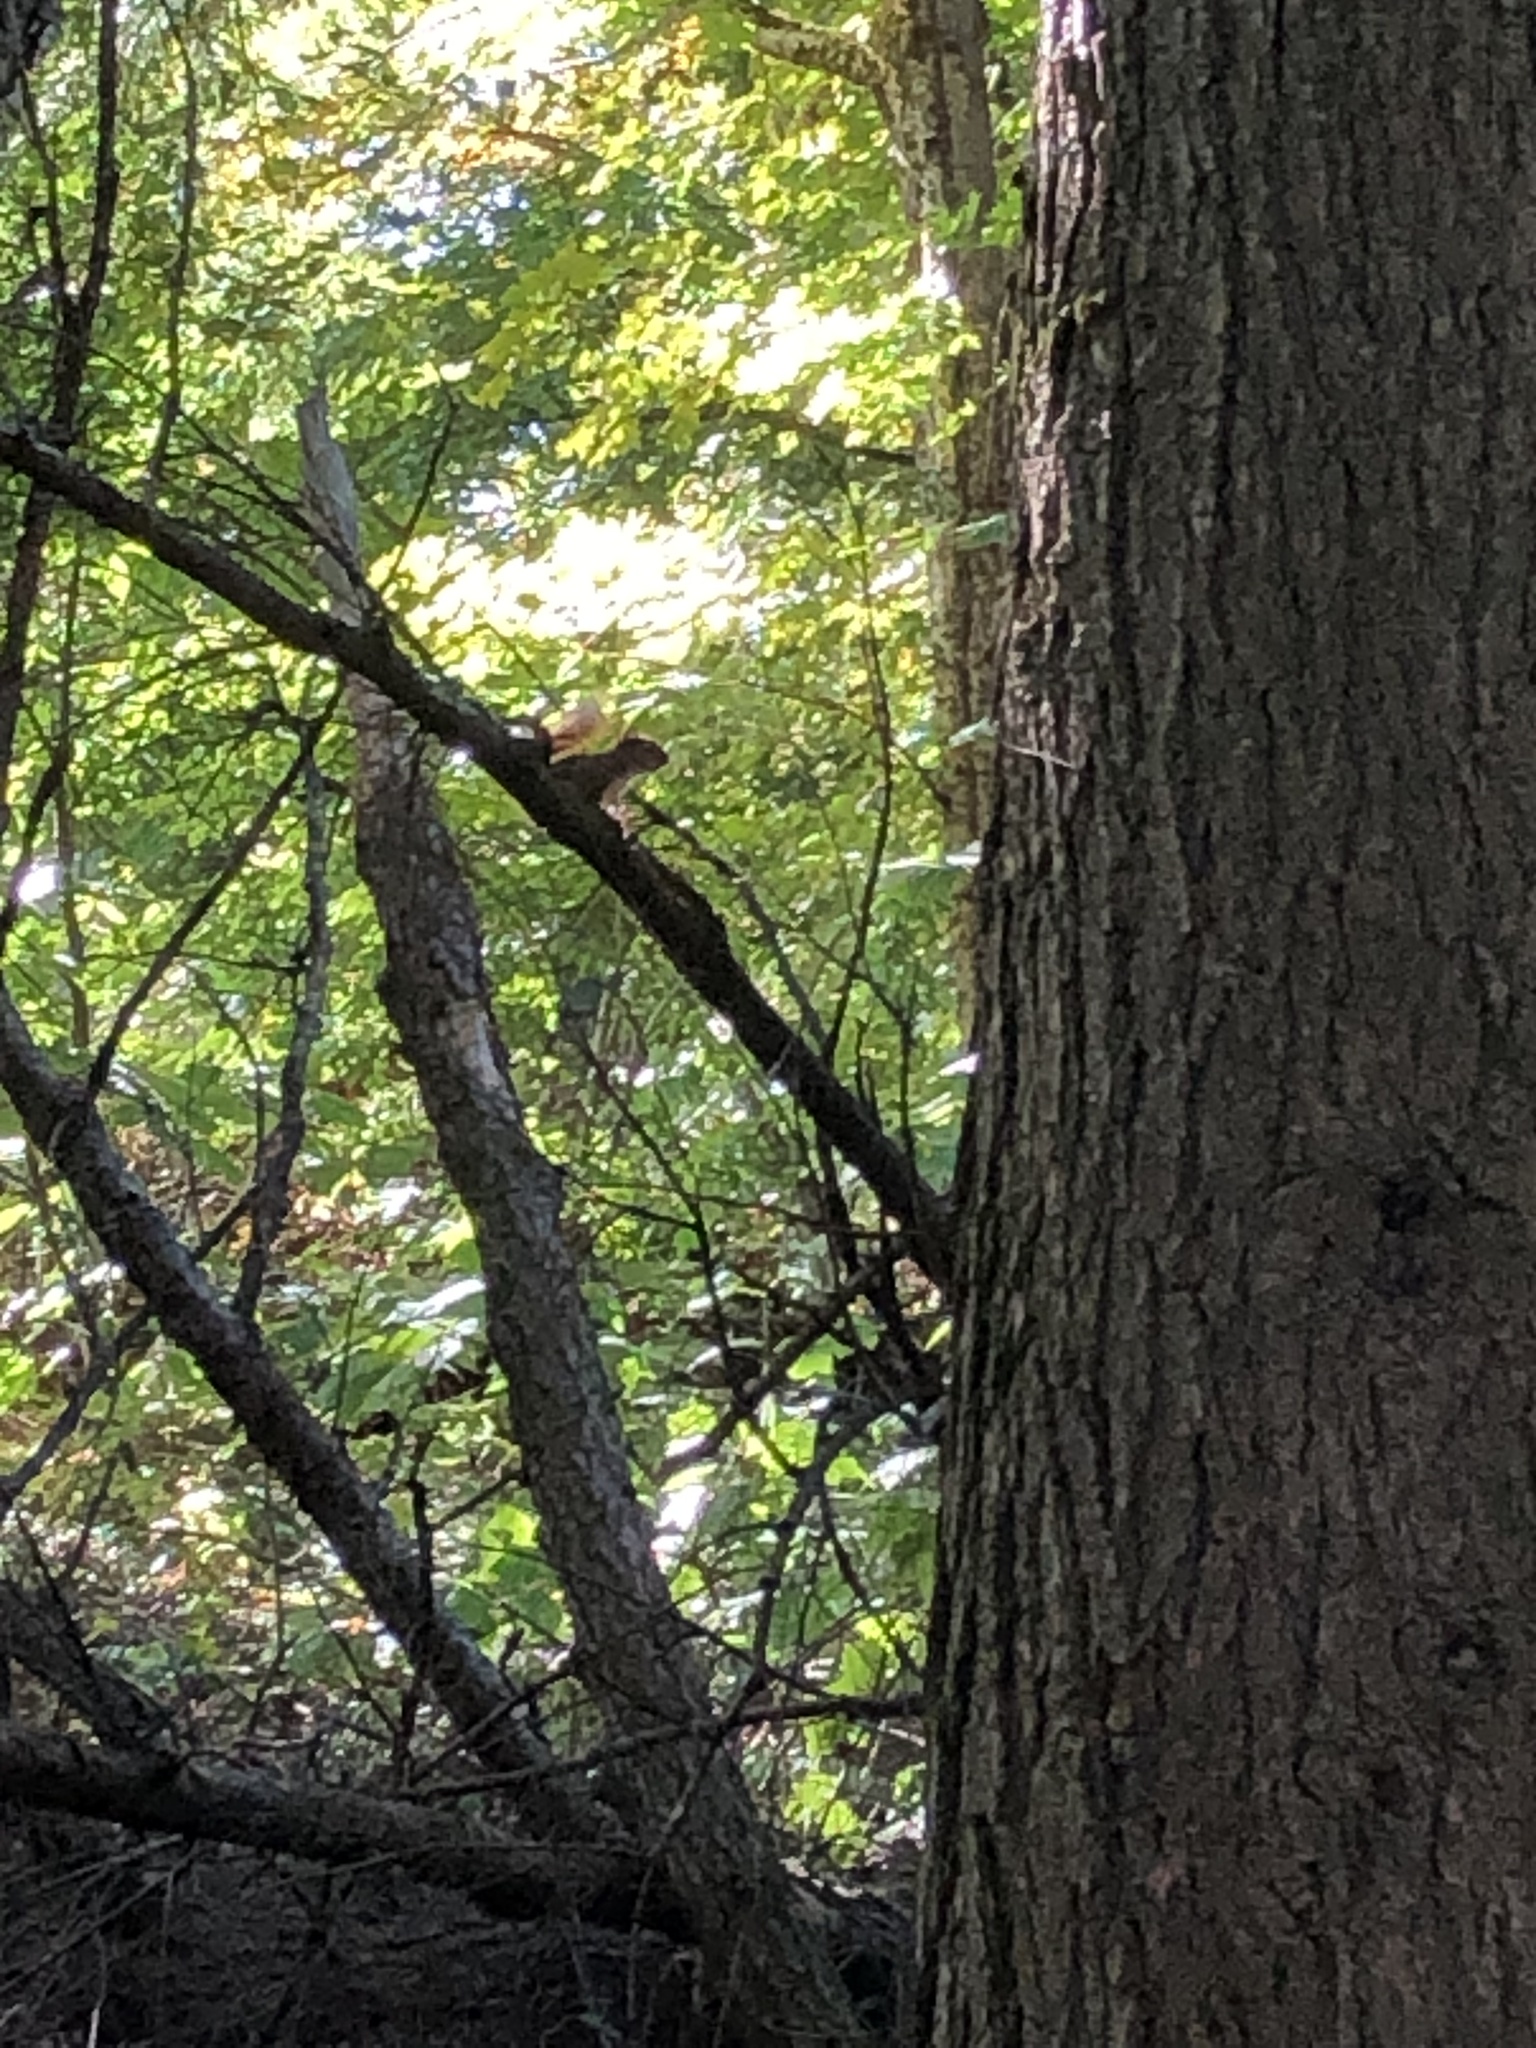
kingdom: Animalia
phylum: Chordata
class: Mammalia
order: Rodentia
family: Sciuridae
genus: Tamiasciurus
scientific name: Tamiasciurus hudsonicus
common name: Red squirrel
